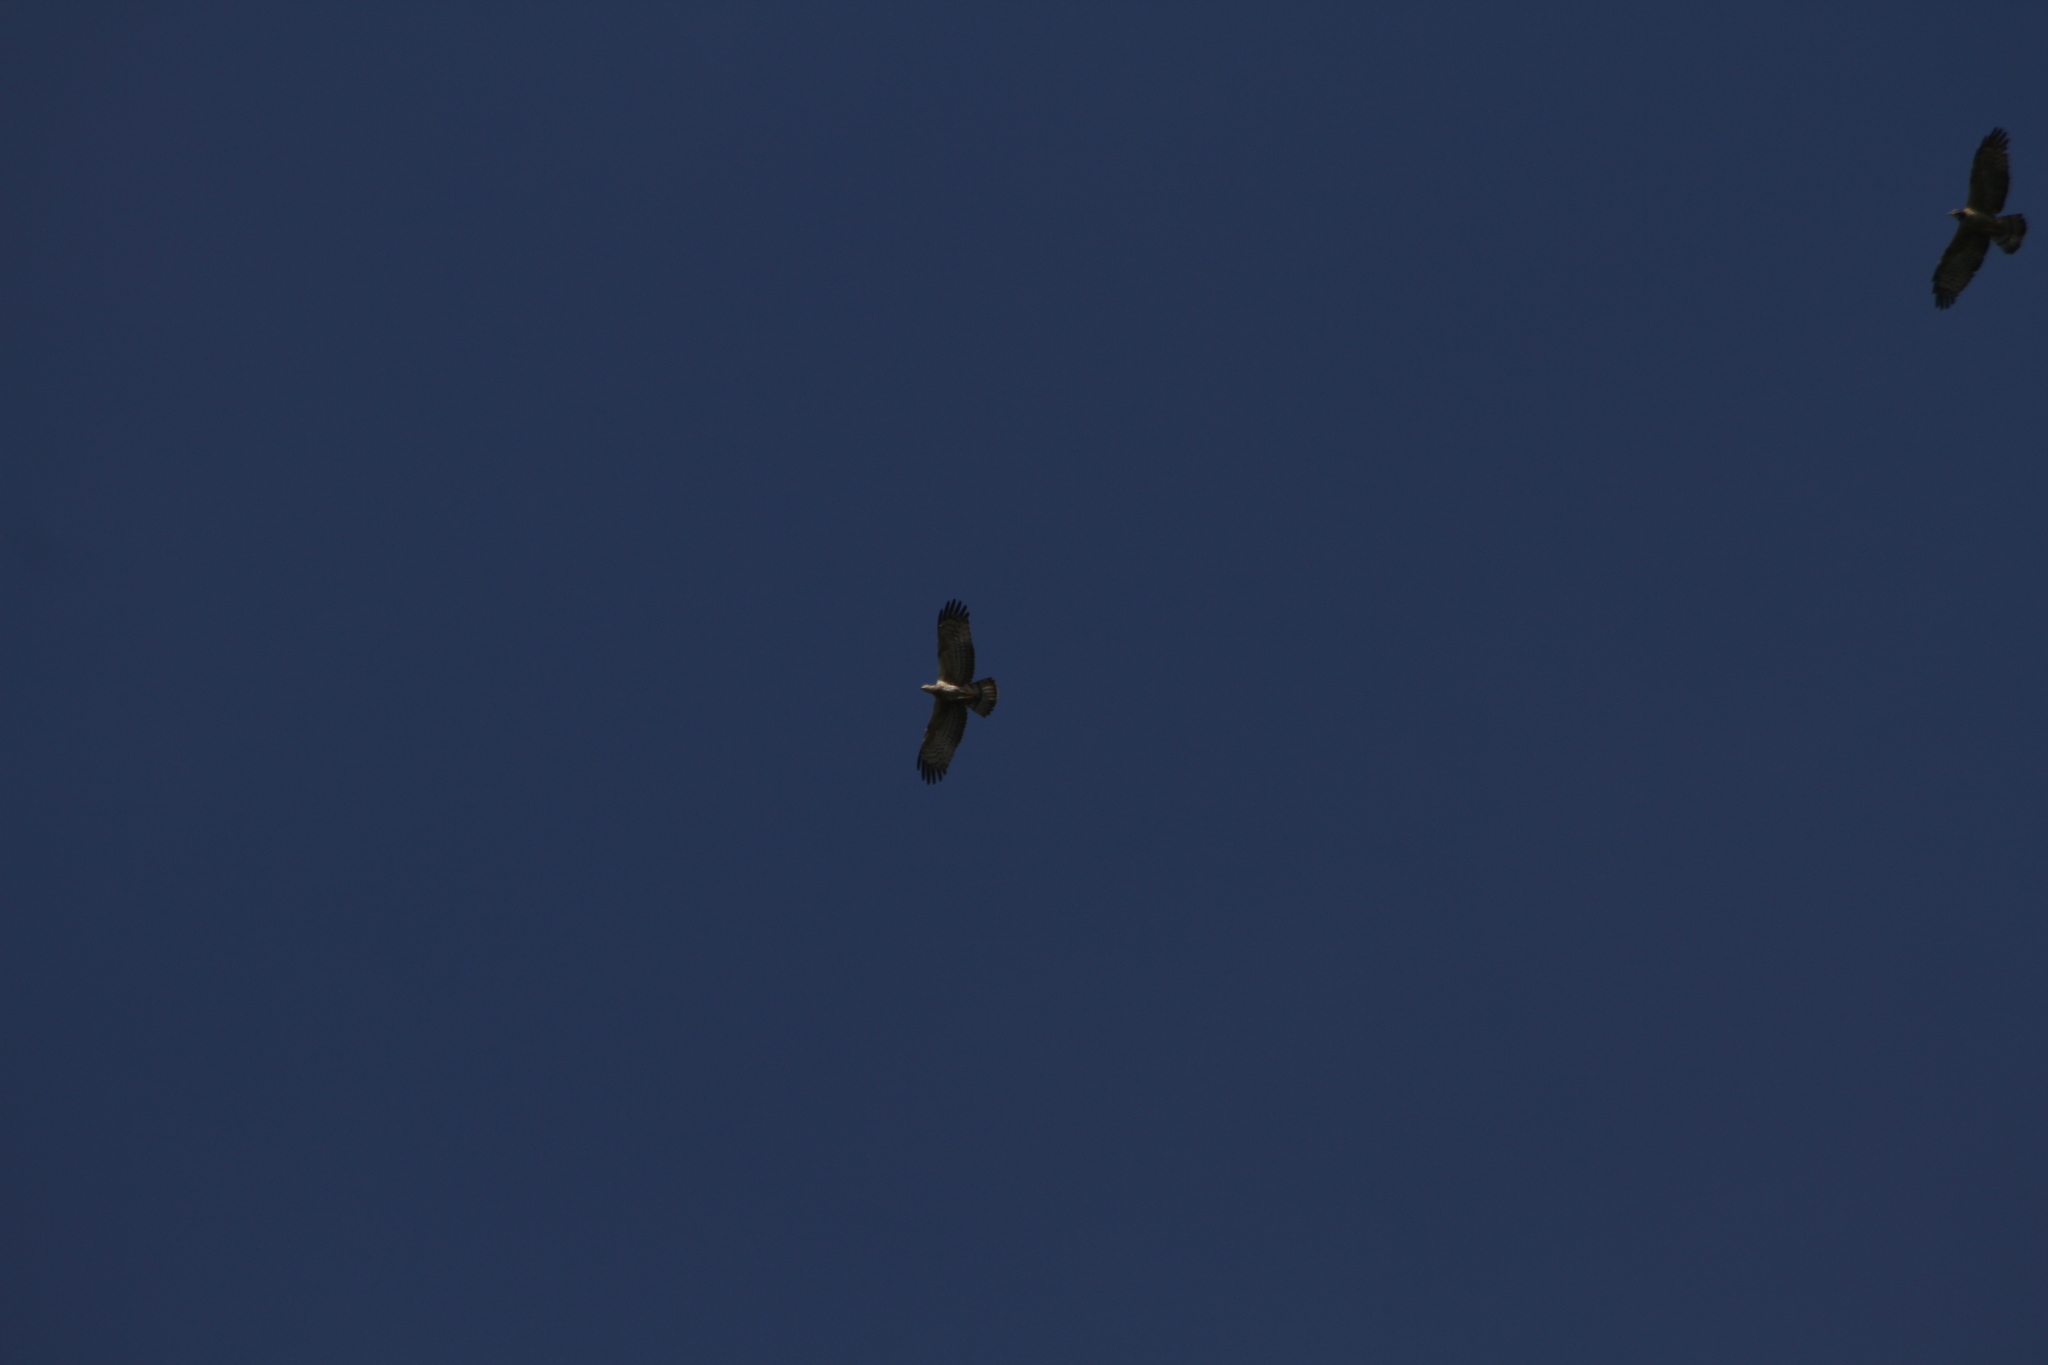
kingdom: Animalia
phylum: Chordata
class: Aves
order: Accipitriformes
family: Accipitridae
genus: Pernis
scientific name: Pernis ptilorhynchus
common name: Crested honey buzzard
